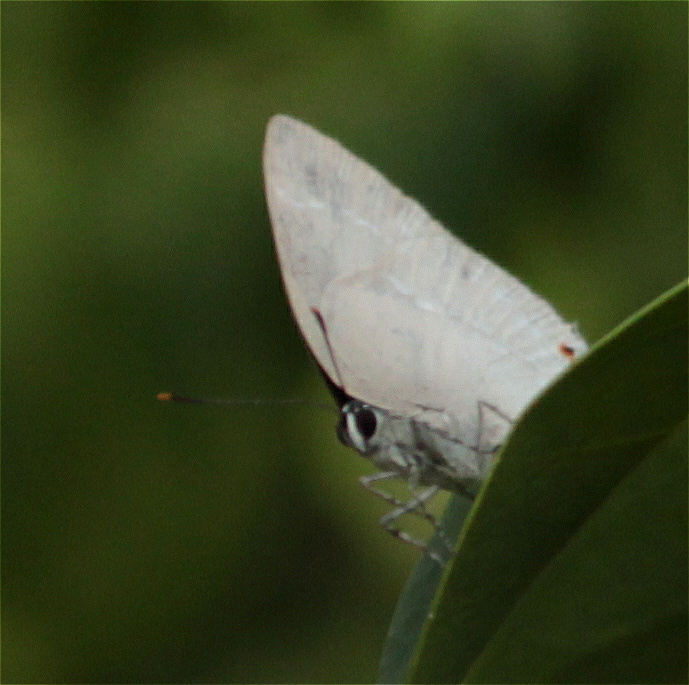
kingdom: Animalia
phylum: Arthropoda
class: Insecta
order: Lepidoptera
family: Lycaenidae
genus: Thecla
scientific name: Thecla ambrax
